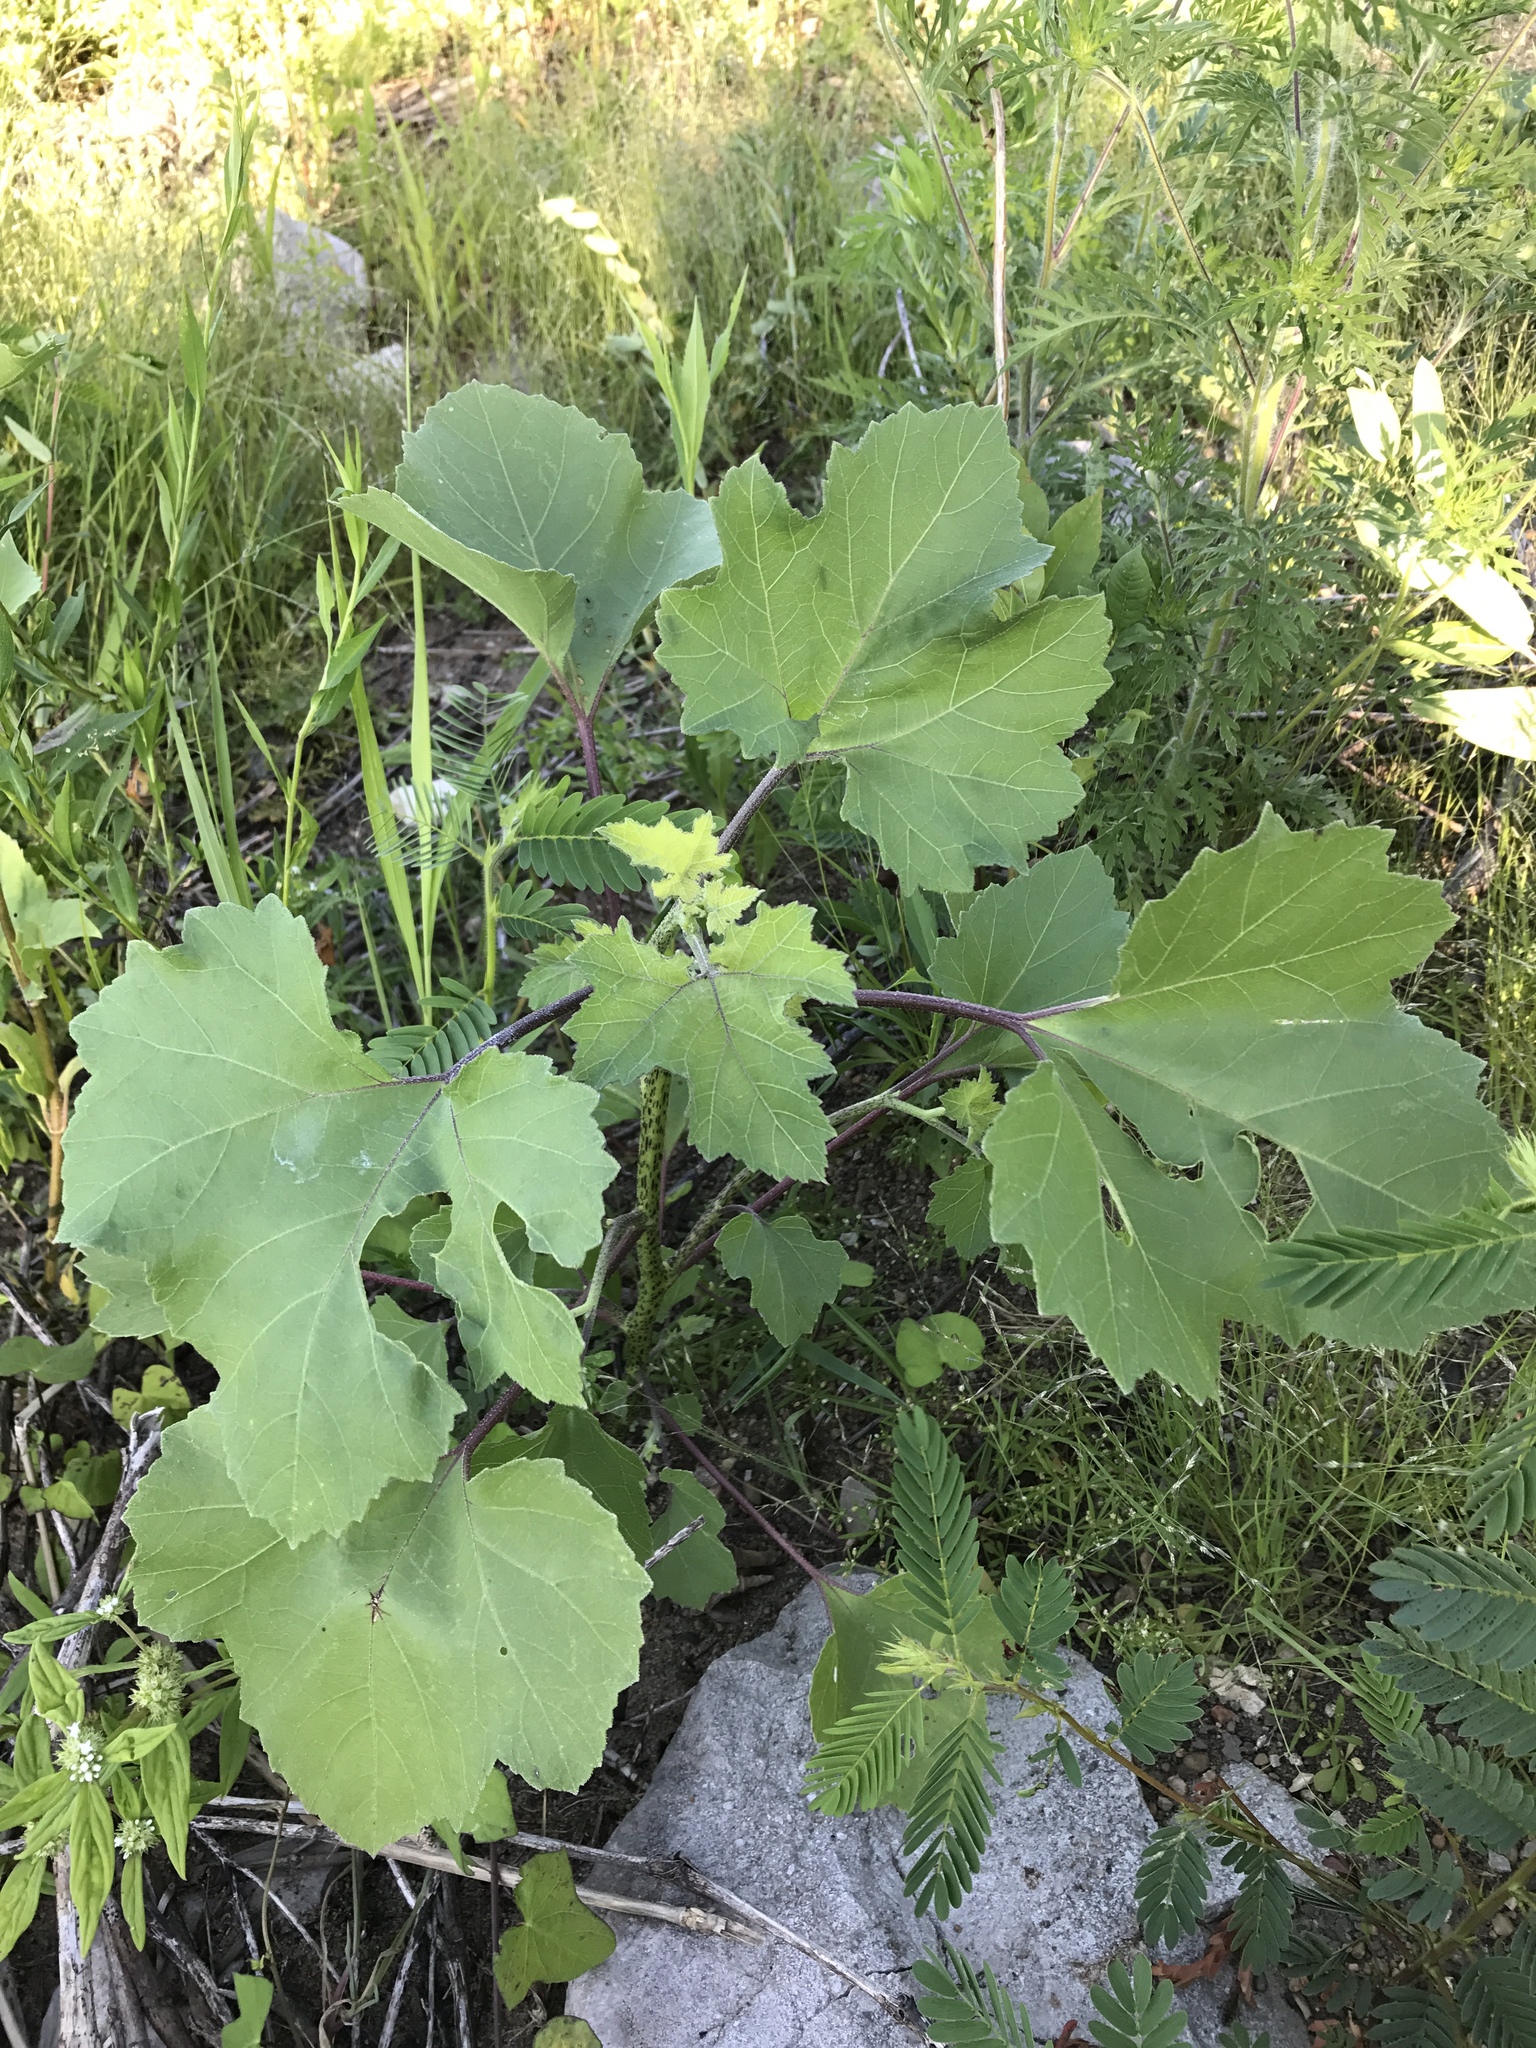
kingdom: Plantae
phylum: Tracheophyta
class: Magnoliopsida
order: Asterales
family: Asteraceae
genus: Xanthium
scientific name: Xanthium strumarium
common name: Rough cocklebur
